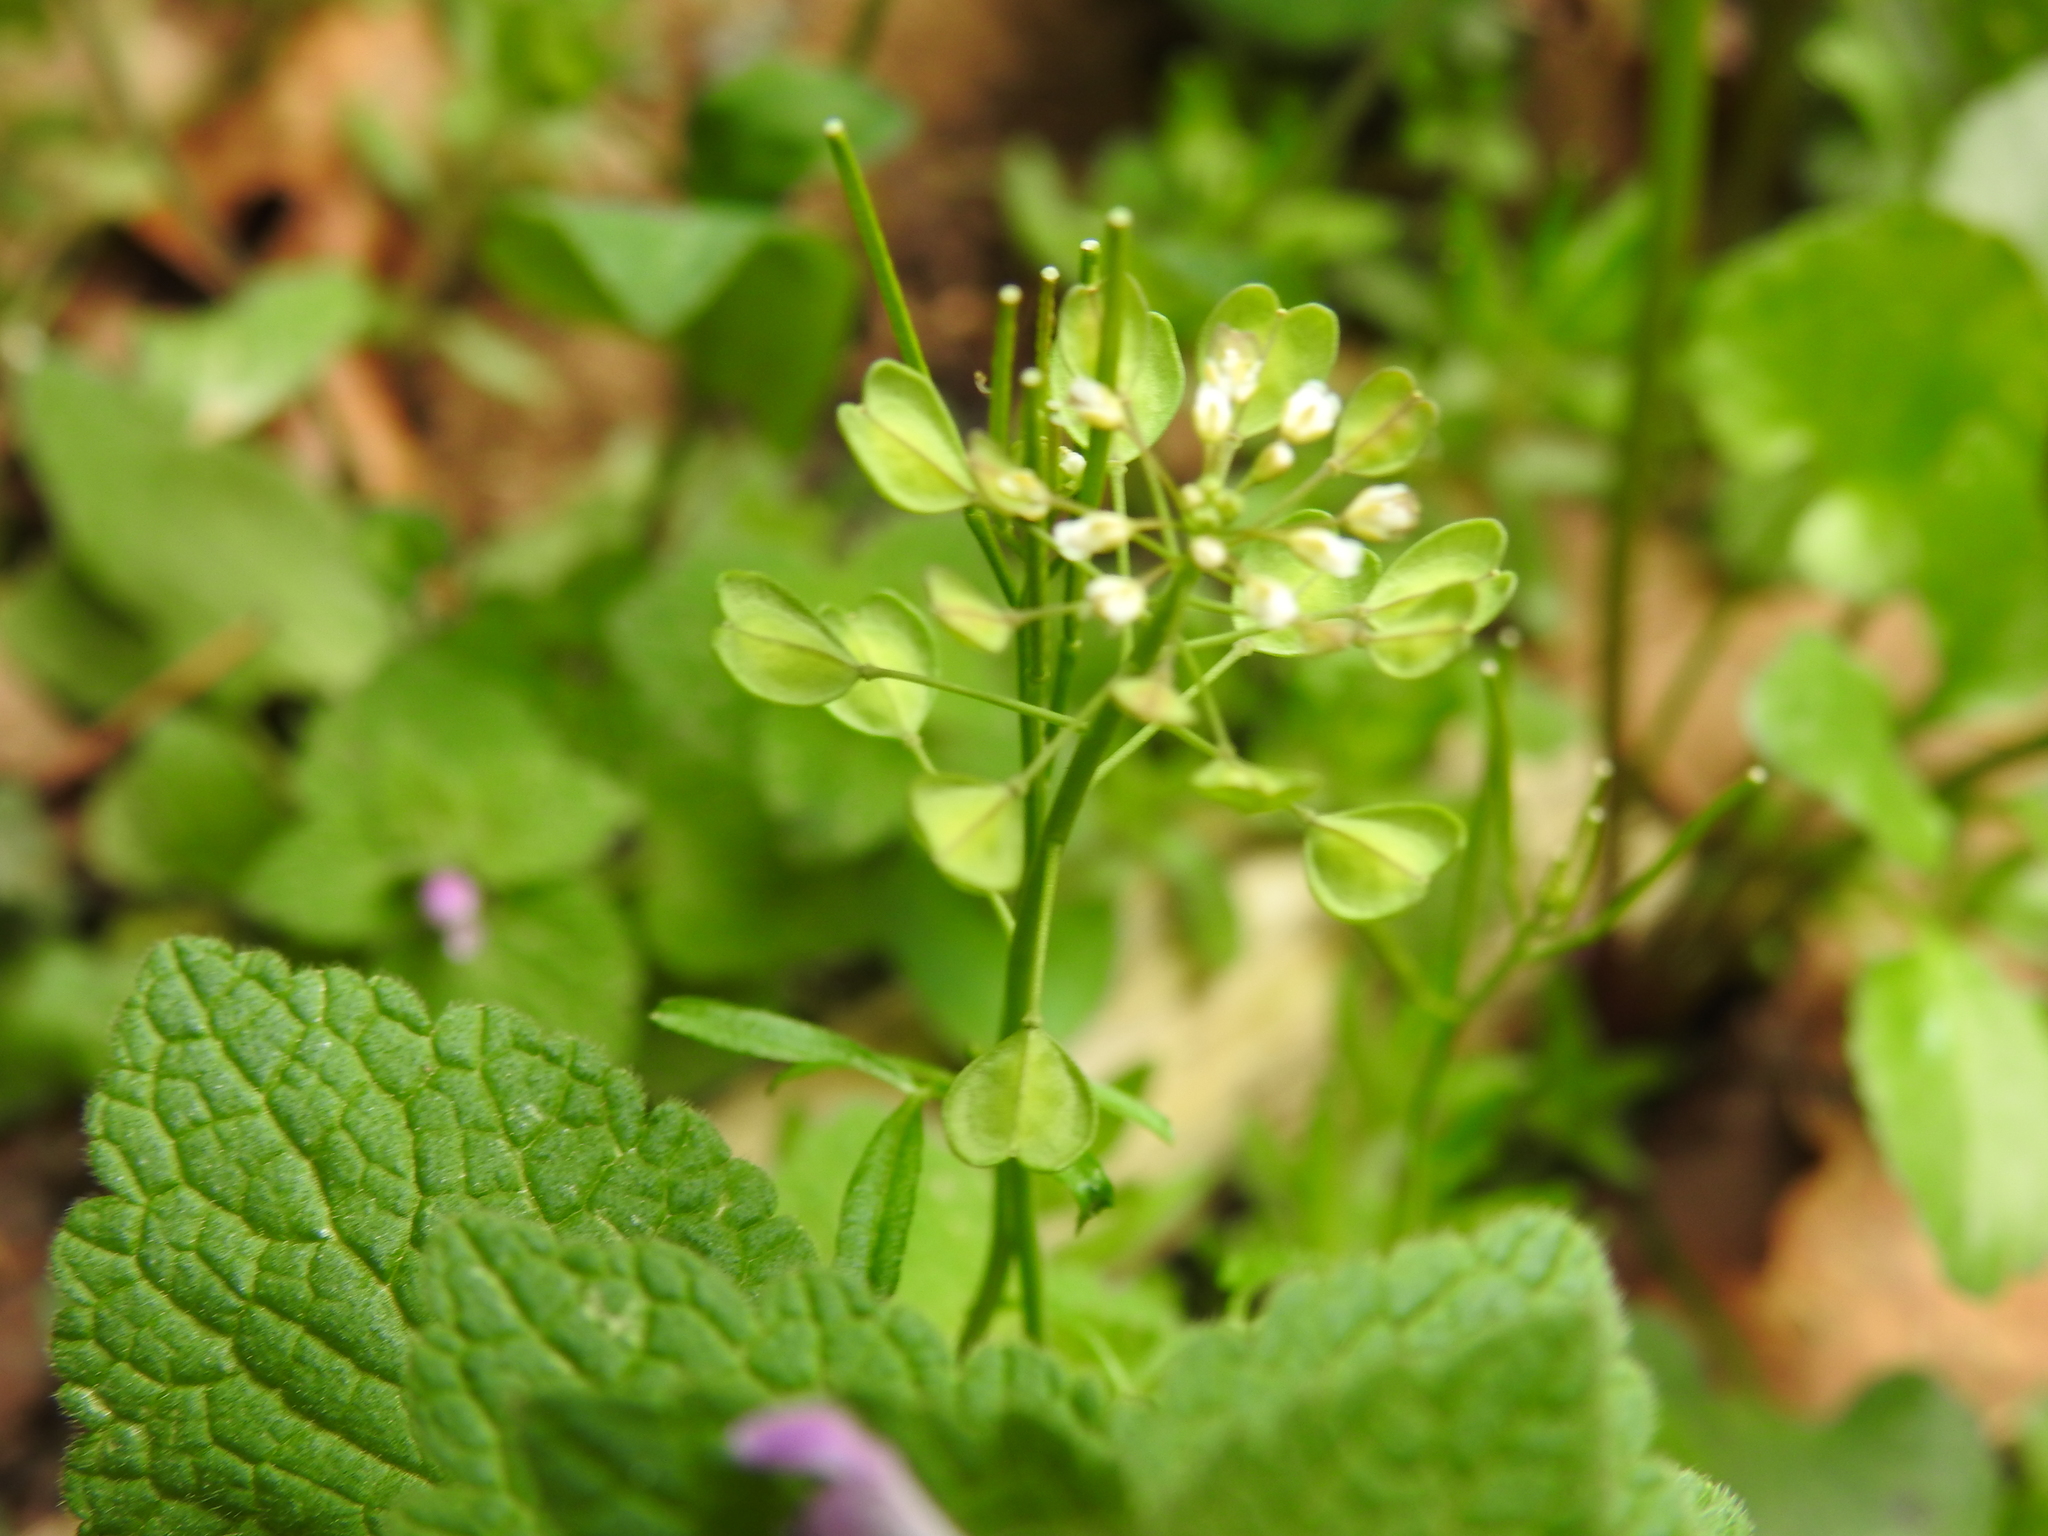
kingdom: Plantae
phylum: Tracheophyta
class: Magnoliopsida
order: Brassicales
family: Brassicaceae
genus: Noccaea
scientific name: Noccaea perfoliata
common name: Perfoliate pennycress
